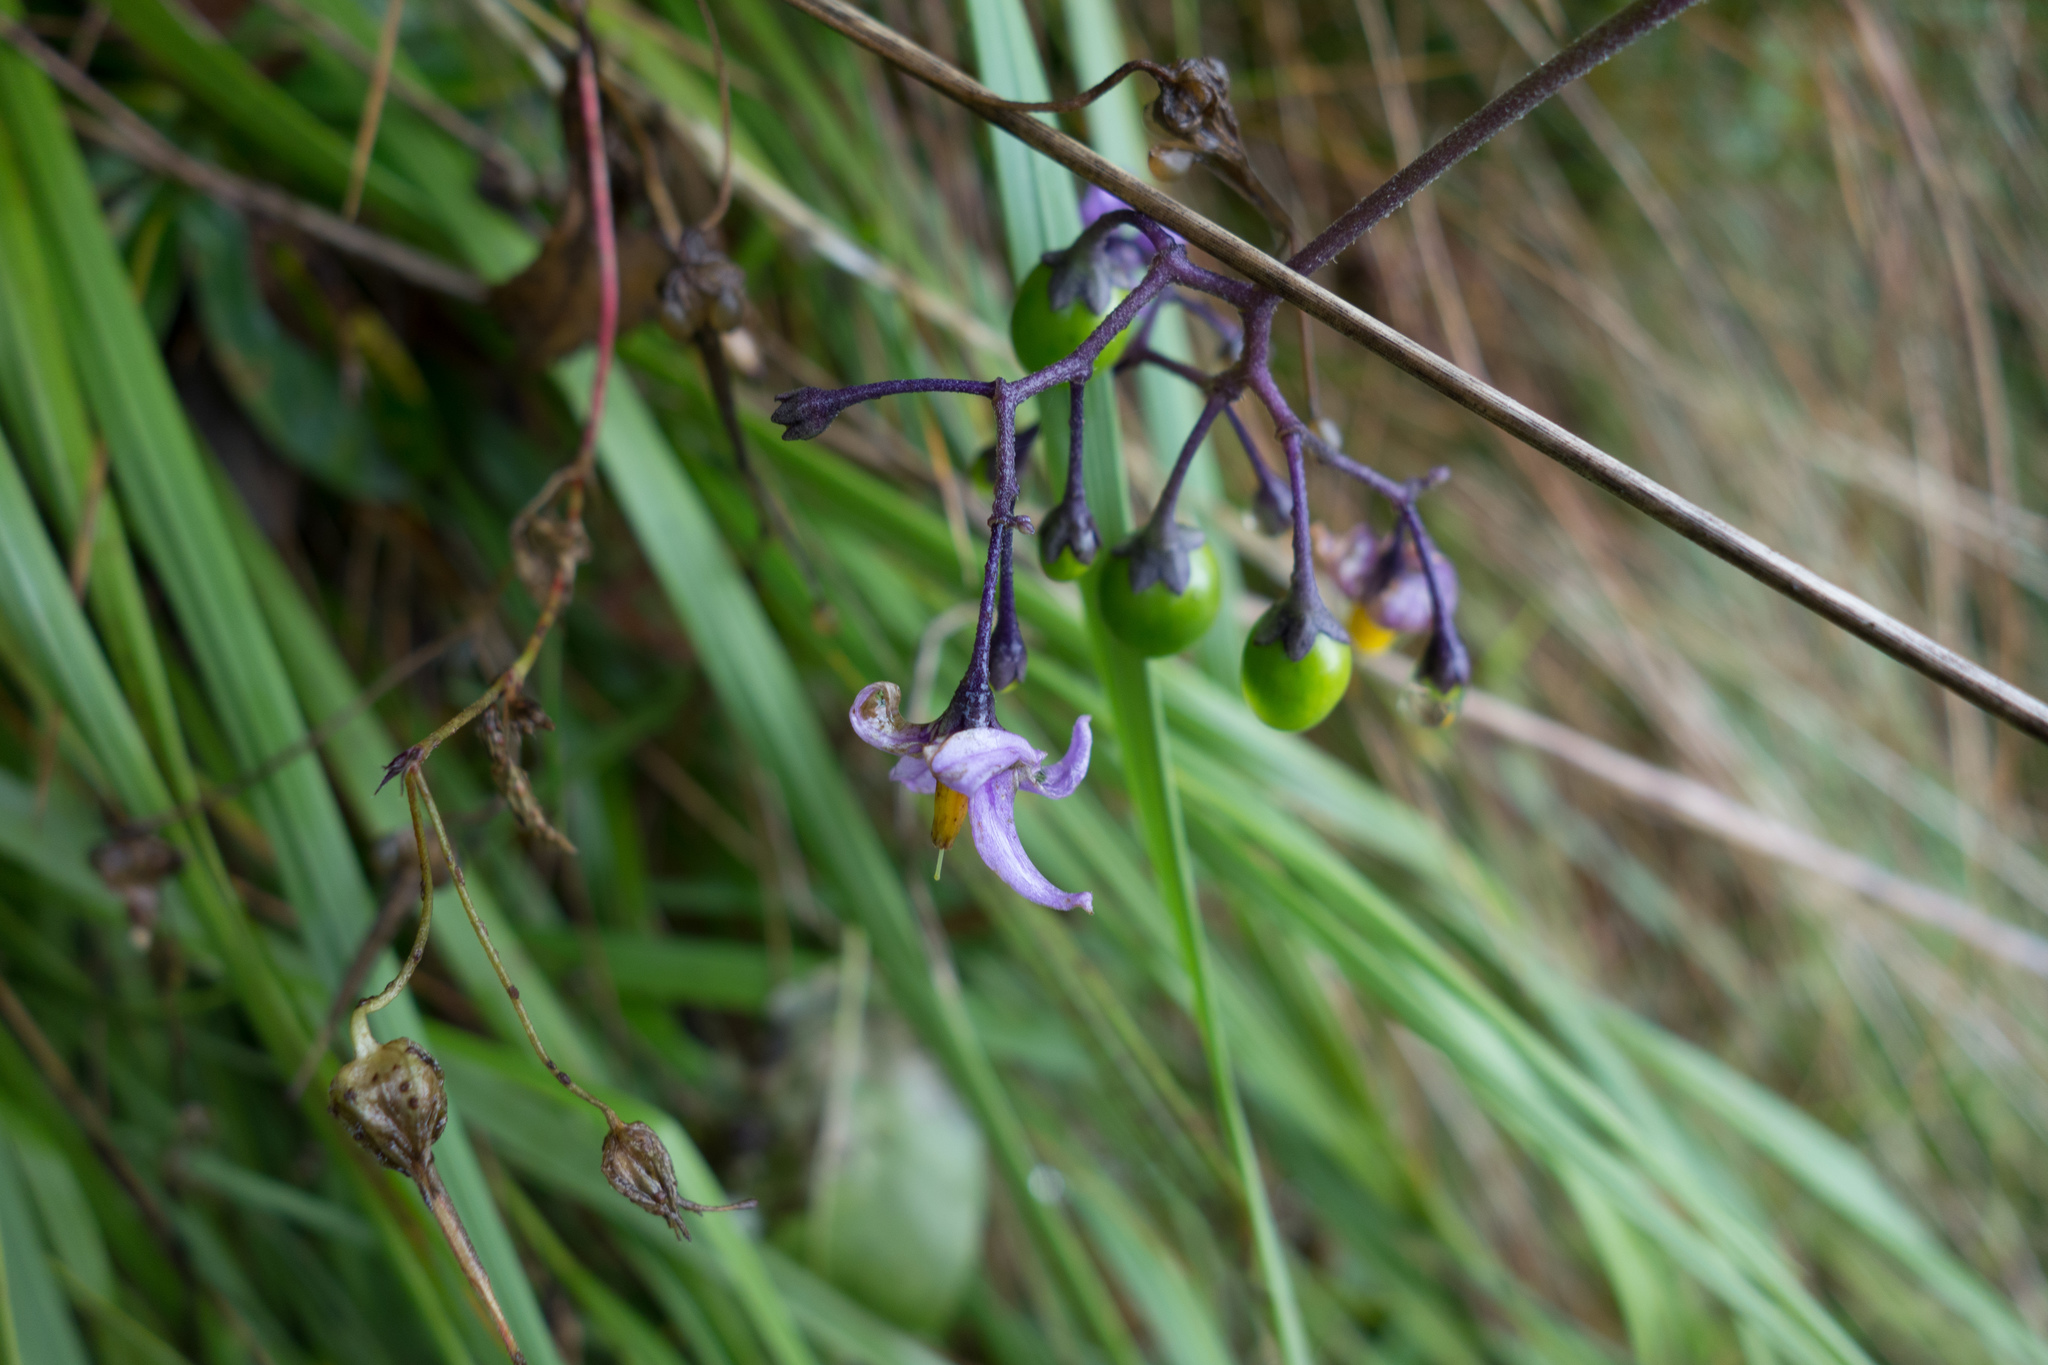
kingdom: Plantae
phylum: Tracheophyta
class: Magnoliopsida
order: Solanales
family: Solanaceae
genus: Solanum
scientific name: Solanum dulcamara
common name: Climbing nightshade
